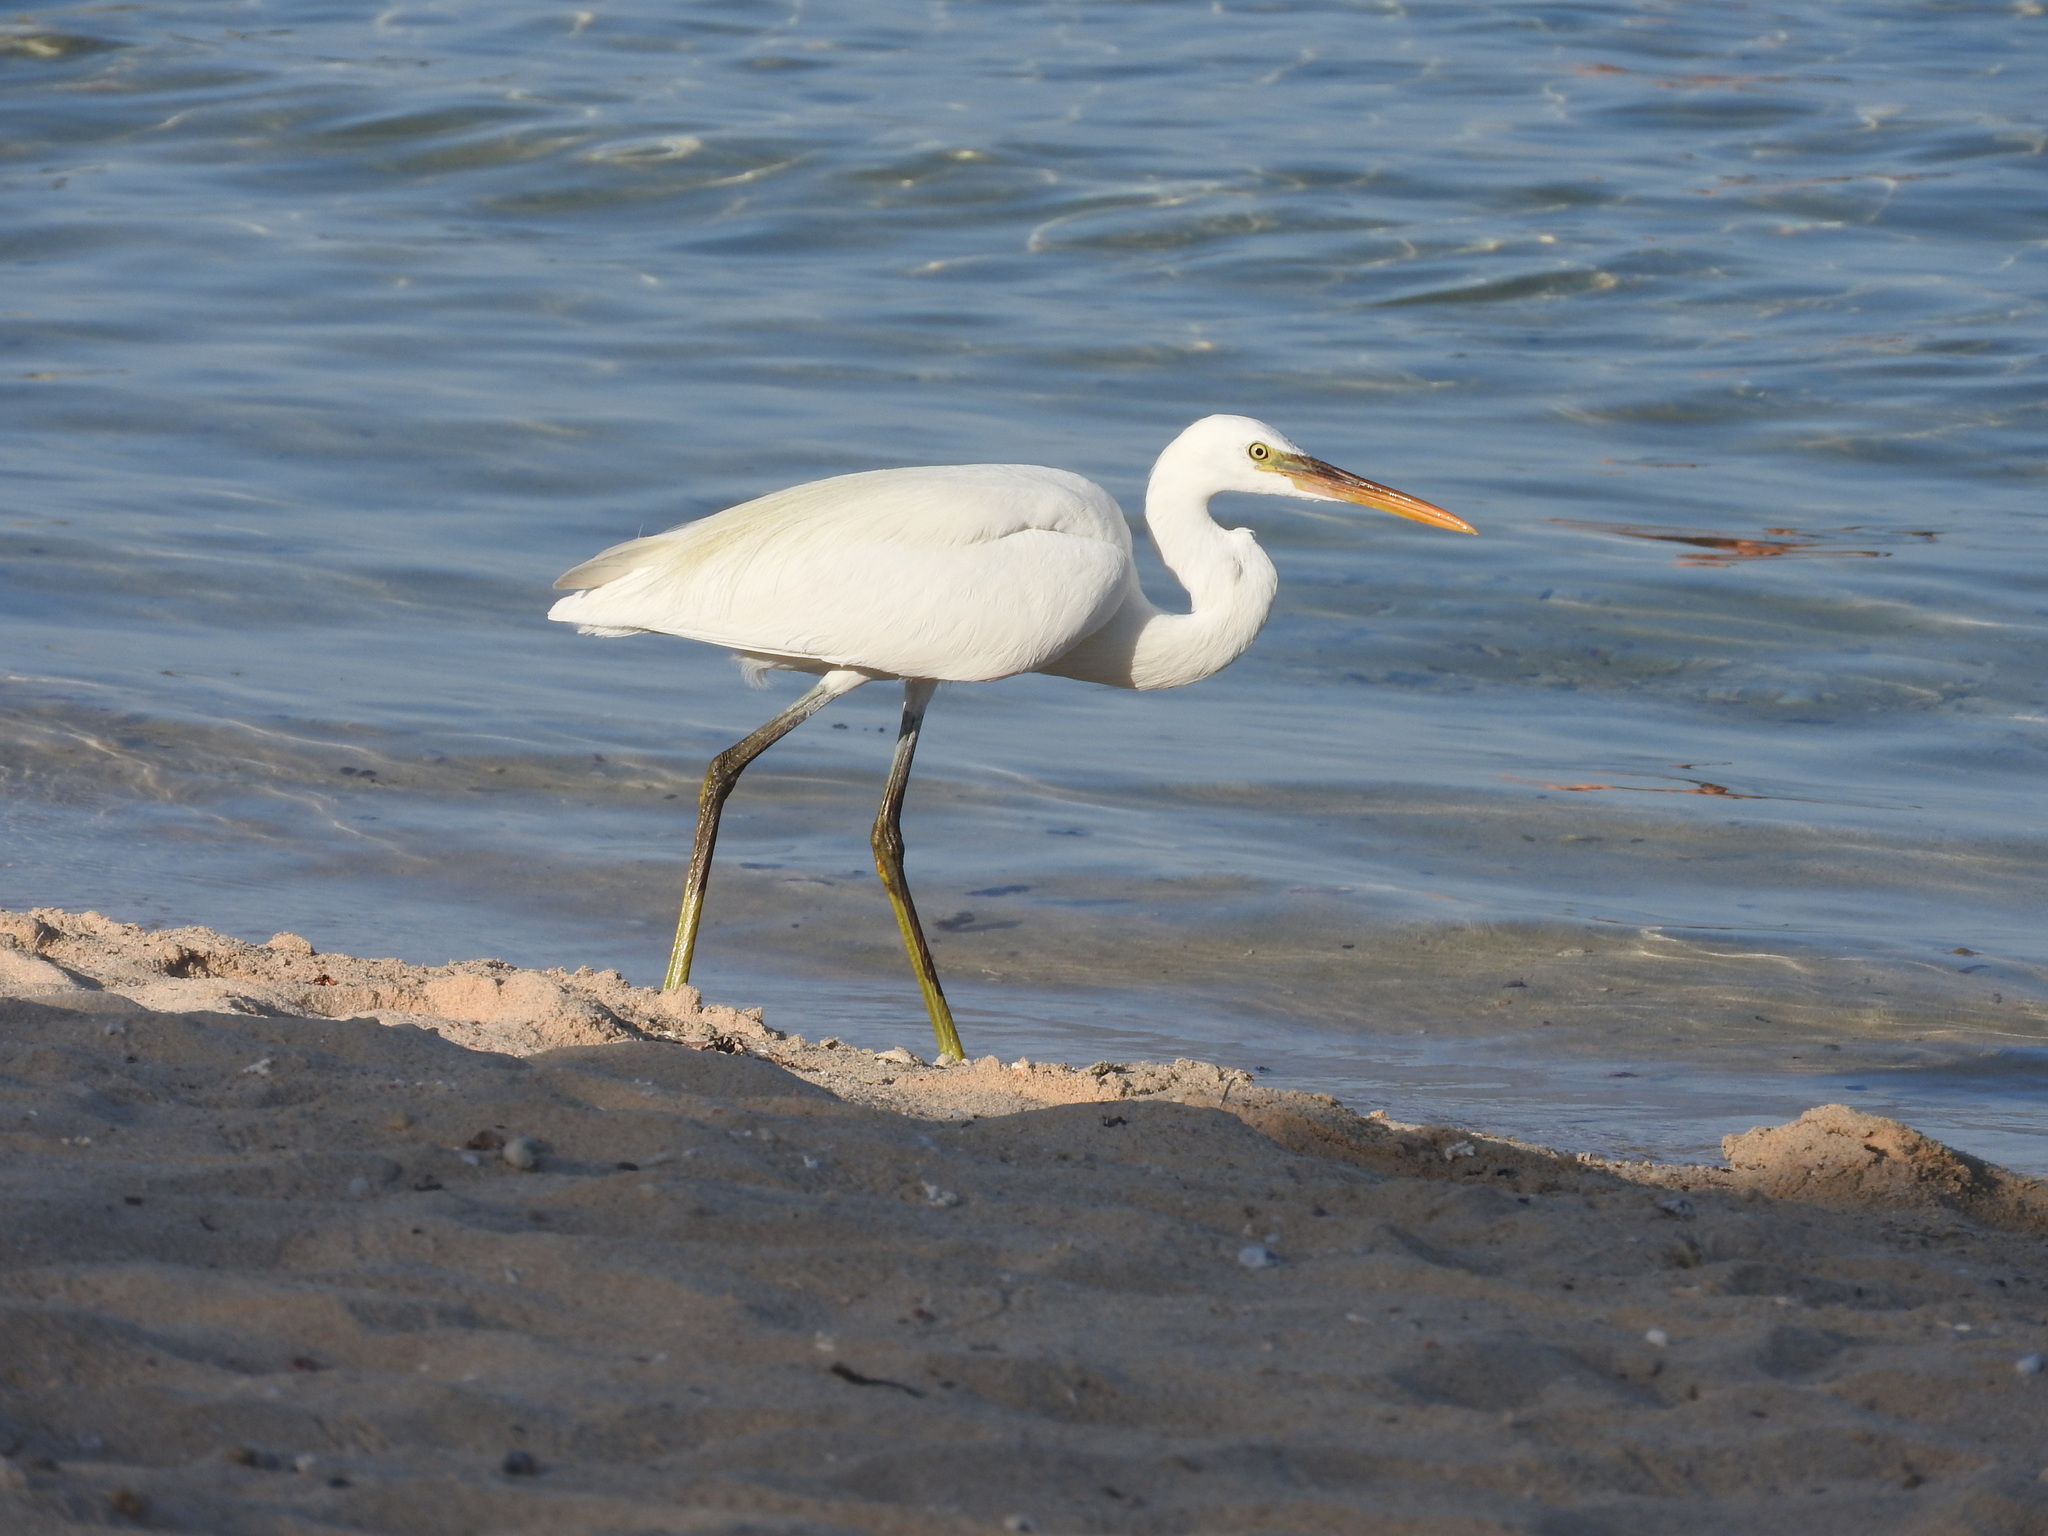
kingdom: Animalia
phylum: Chordata
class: Aves
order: Pelecaniformes
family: Ardeidae
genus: Egretta
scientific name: Egretta gularis
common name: Western reef-heron
